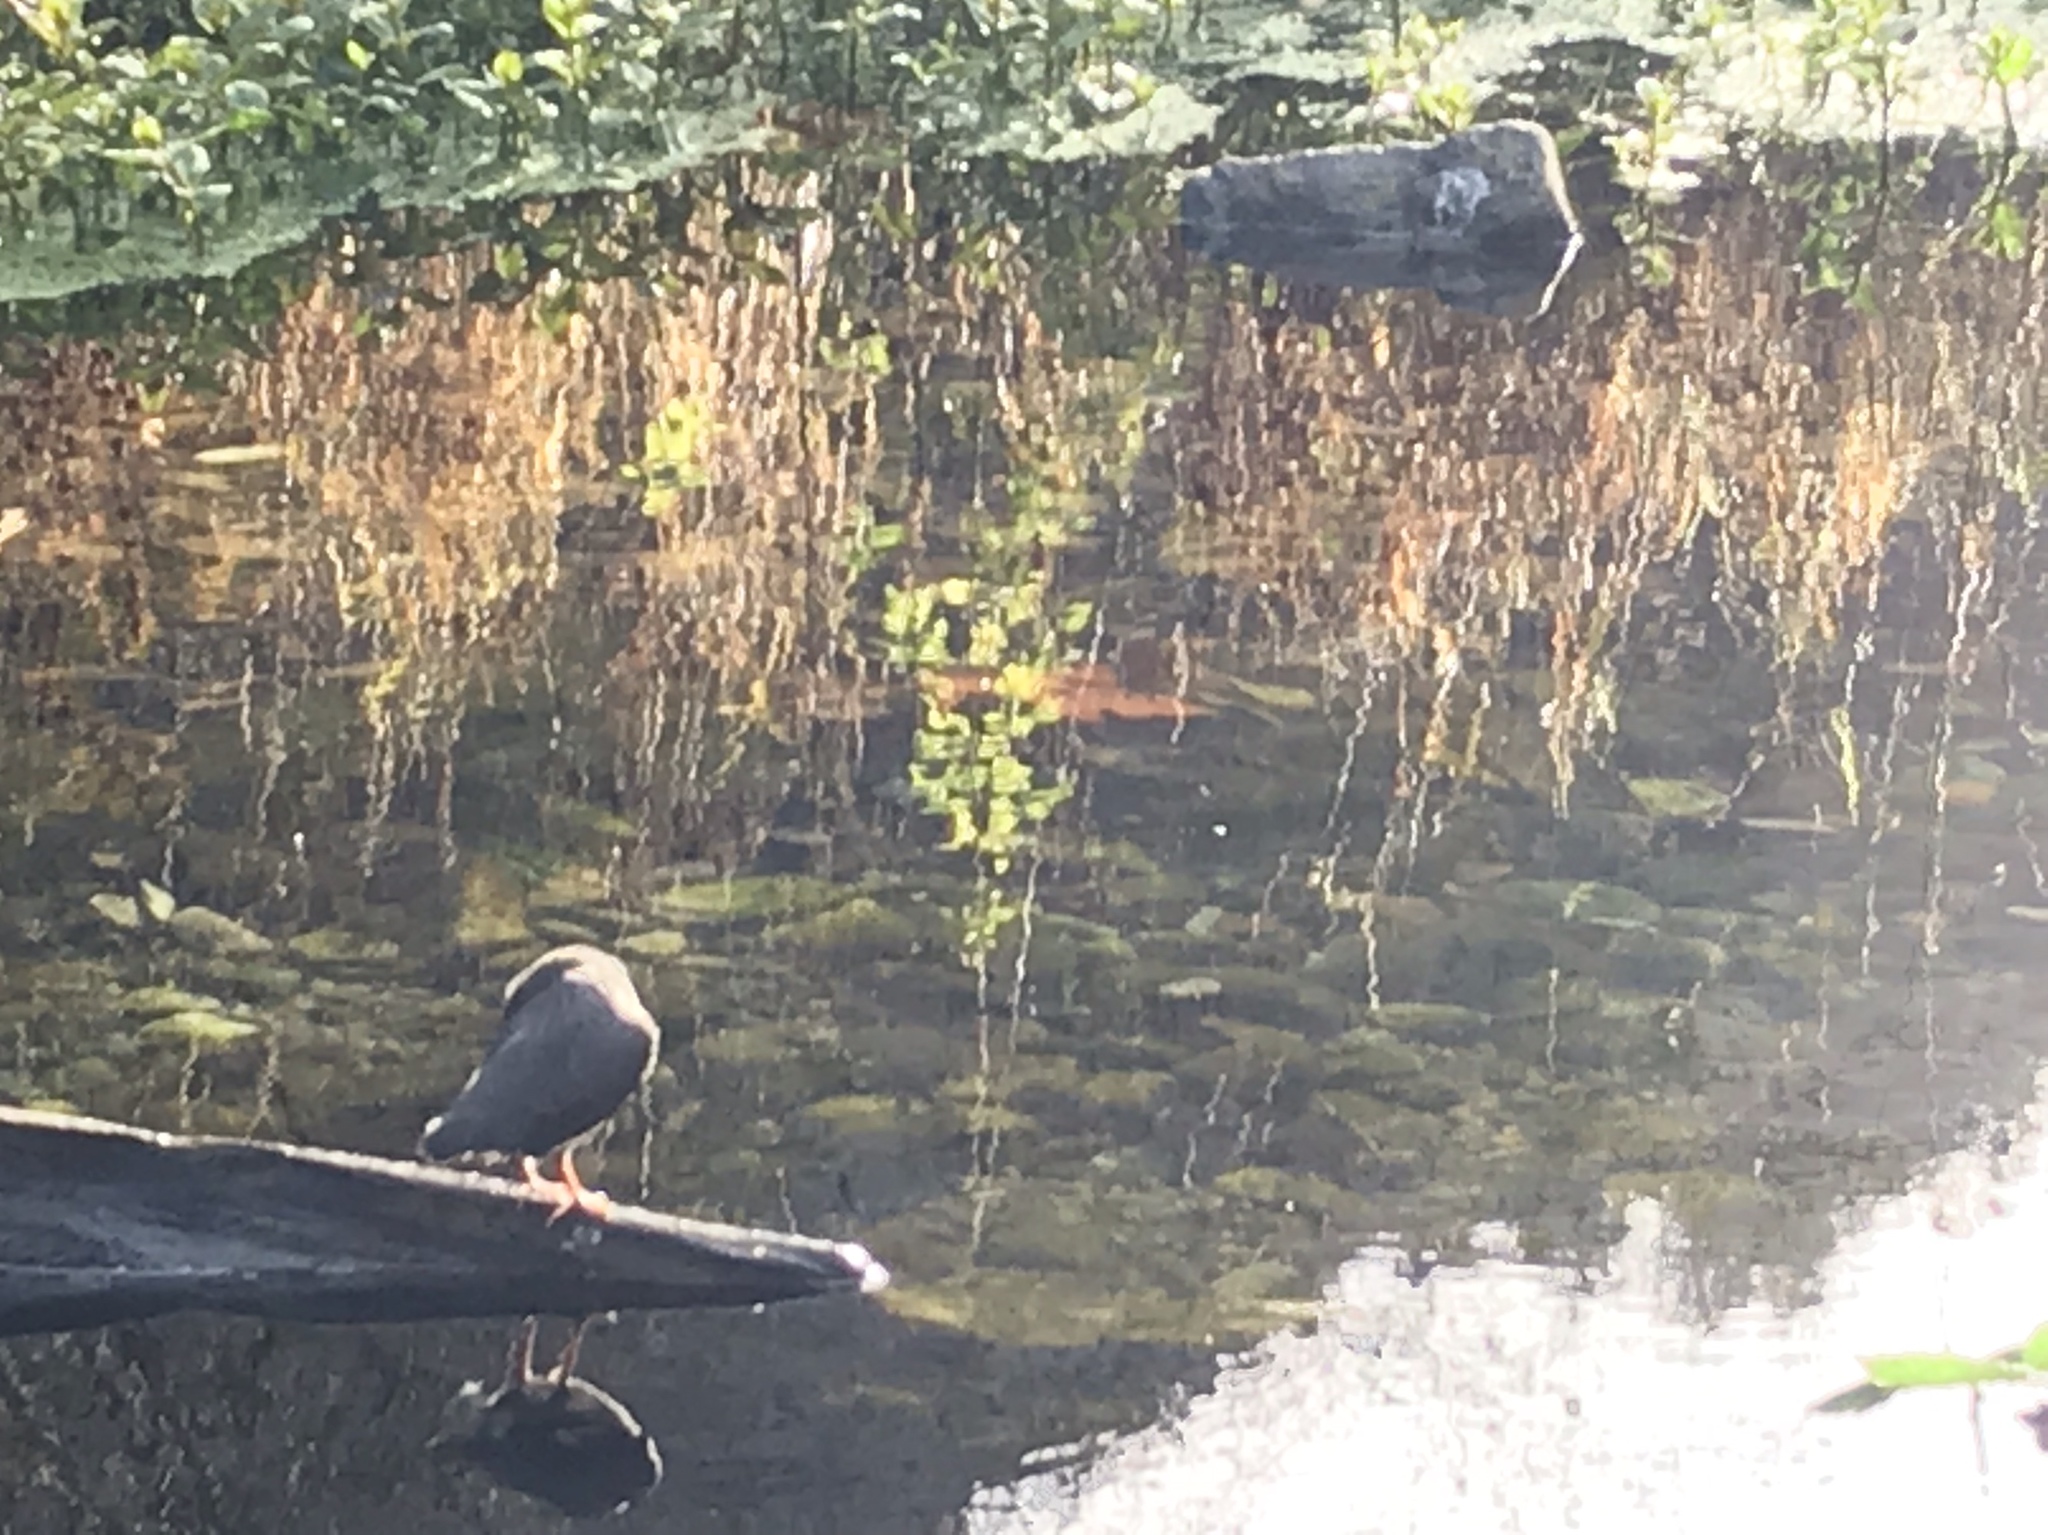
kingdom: Animalia
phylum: Chordata
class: Aves
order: Passeriformes
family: Cinclidae
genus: Cinclus
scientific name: Cinclus mexicanus
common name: American dipper
